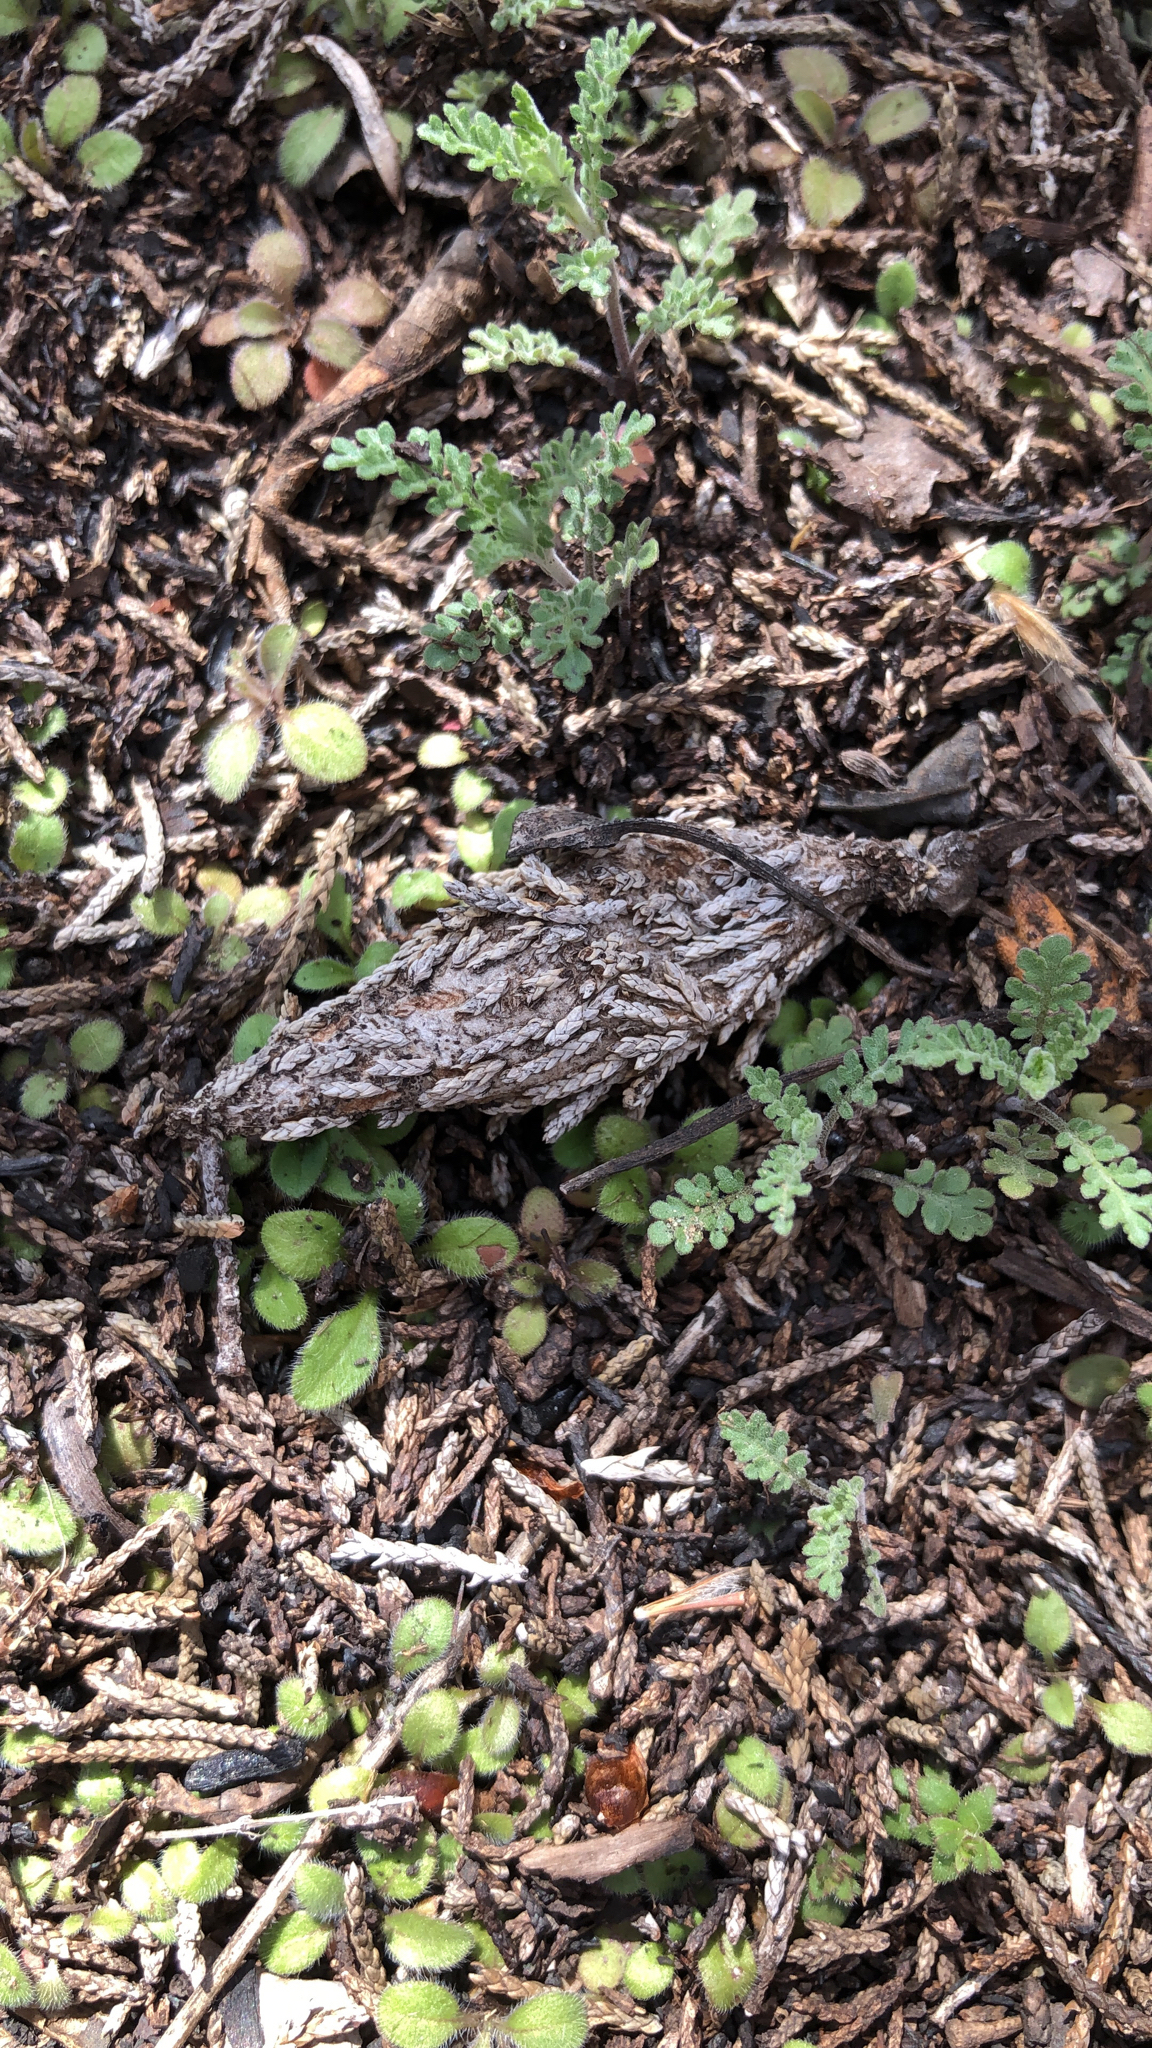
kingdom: Animalia
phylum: Arthropoda
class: Insecta
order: Lepidoptera
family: Psychidae
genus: Thyridopteryx
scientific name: Thyridopteryx ephemeraeformis
